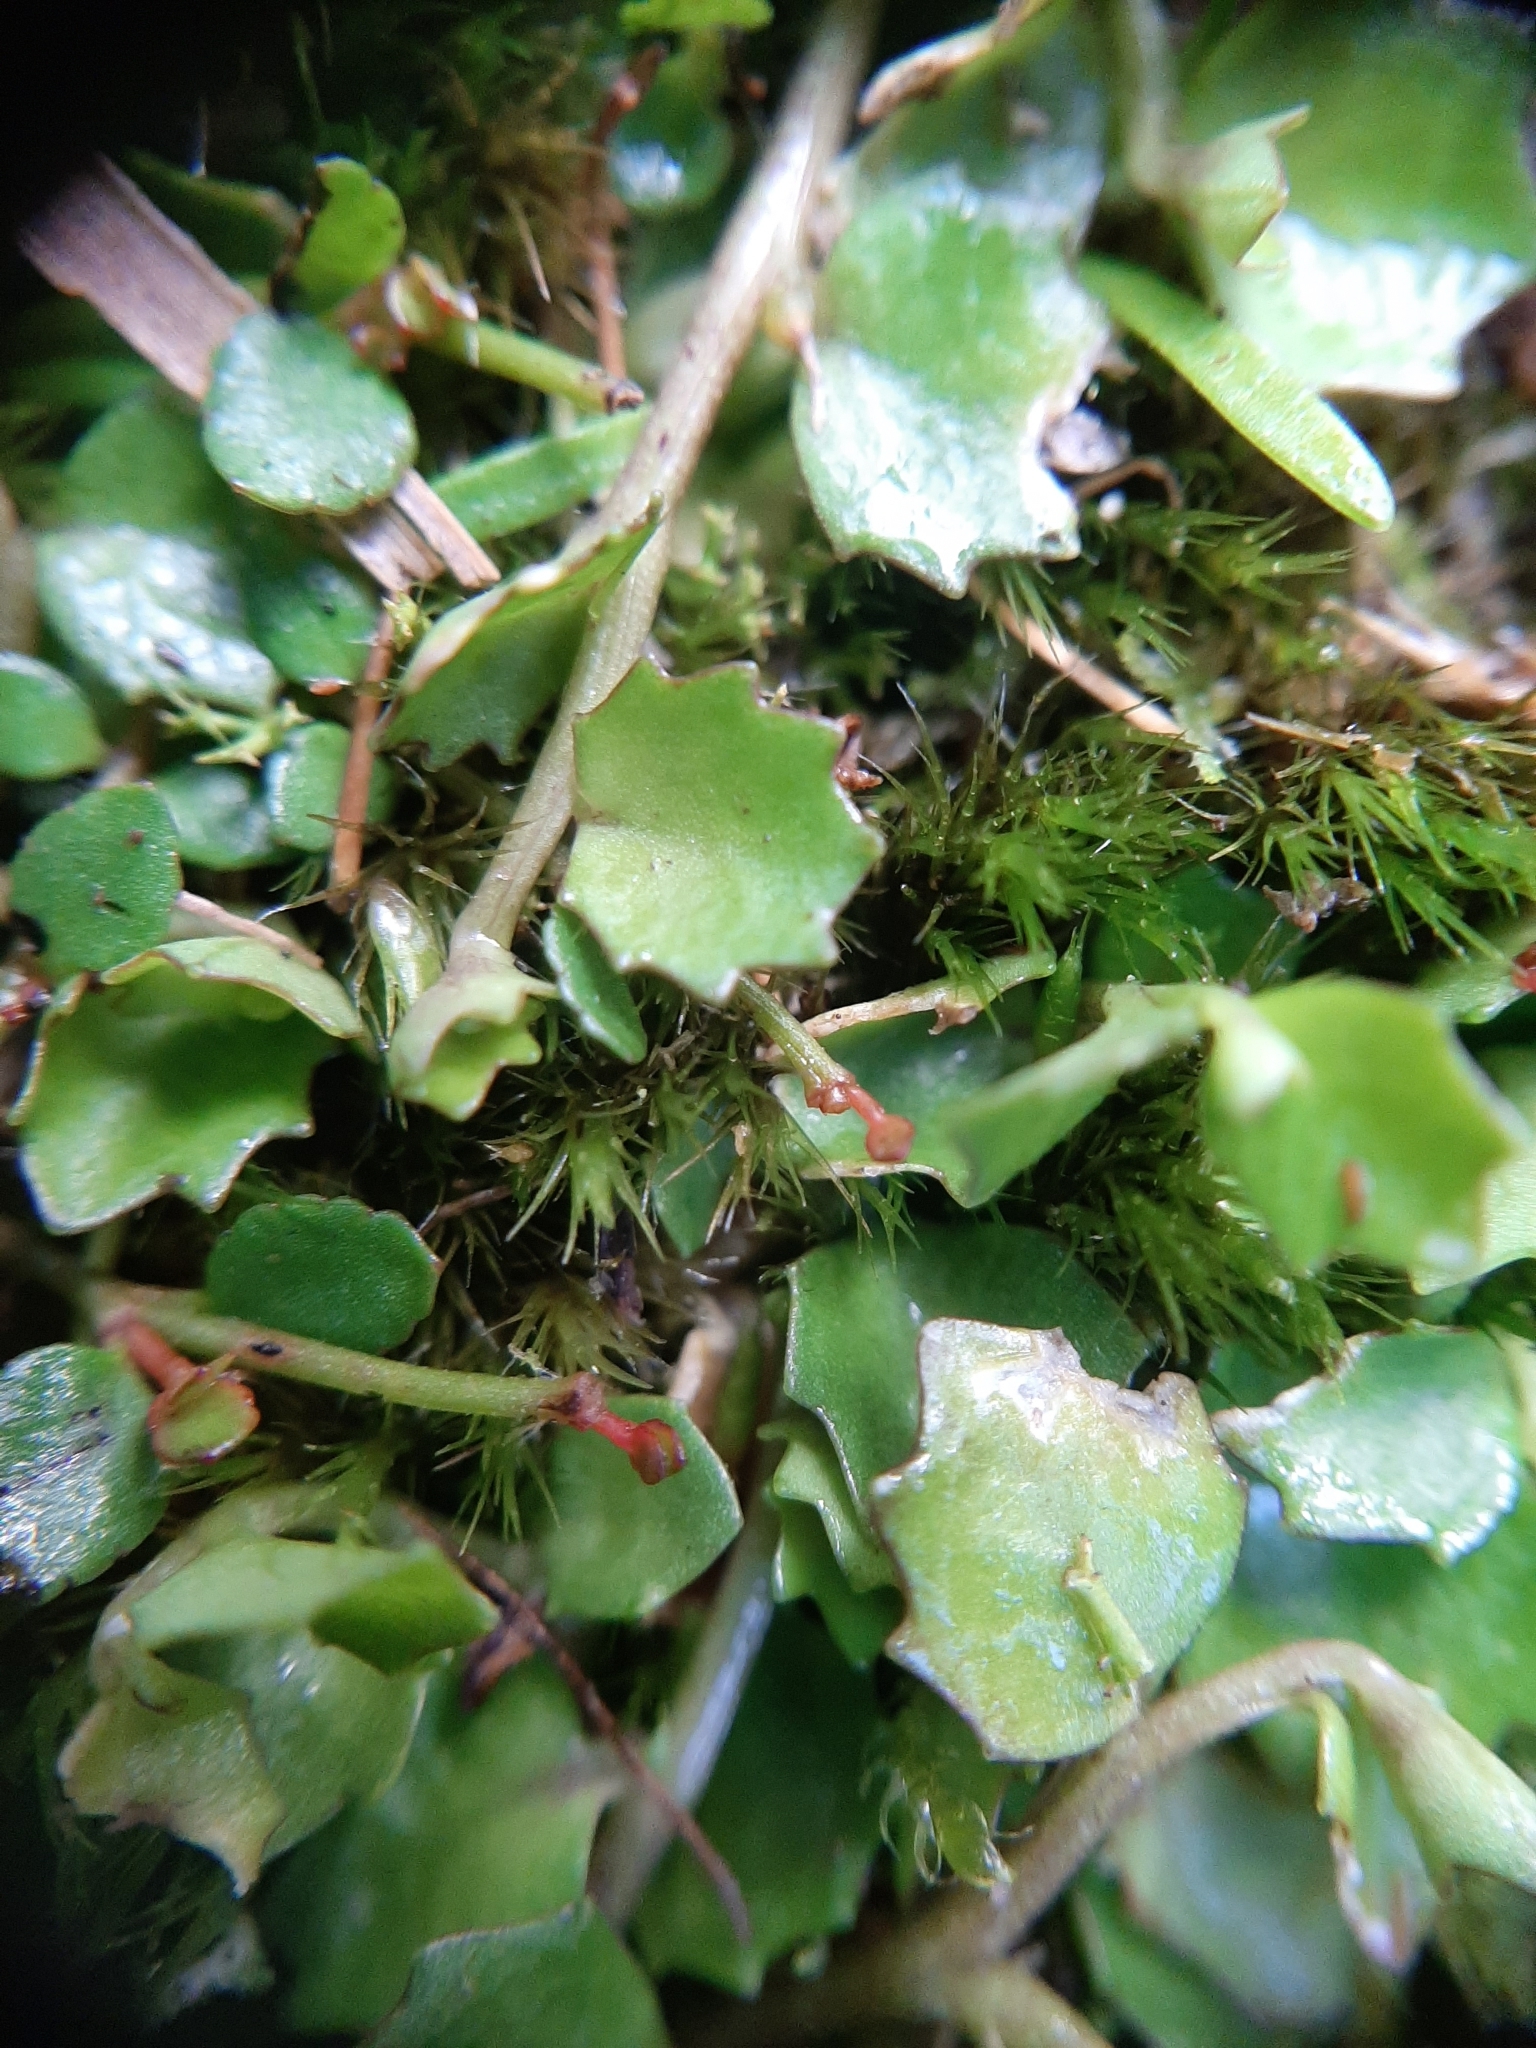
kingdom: Plantae
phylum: Tracheophyta
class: Magnoliopsida
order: Asterales
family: Campanulaceae
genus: Lobelia
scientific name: Lobelia angulata
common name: Lawn lobelia
